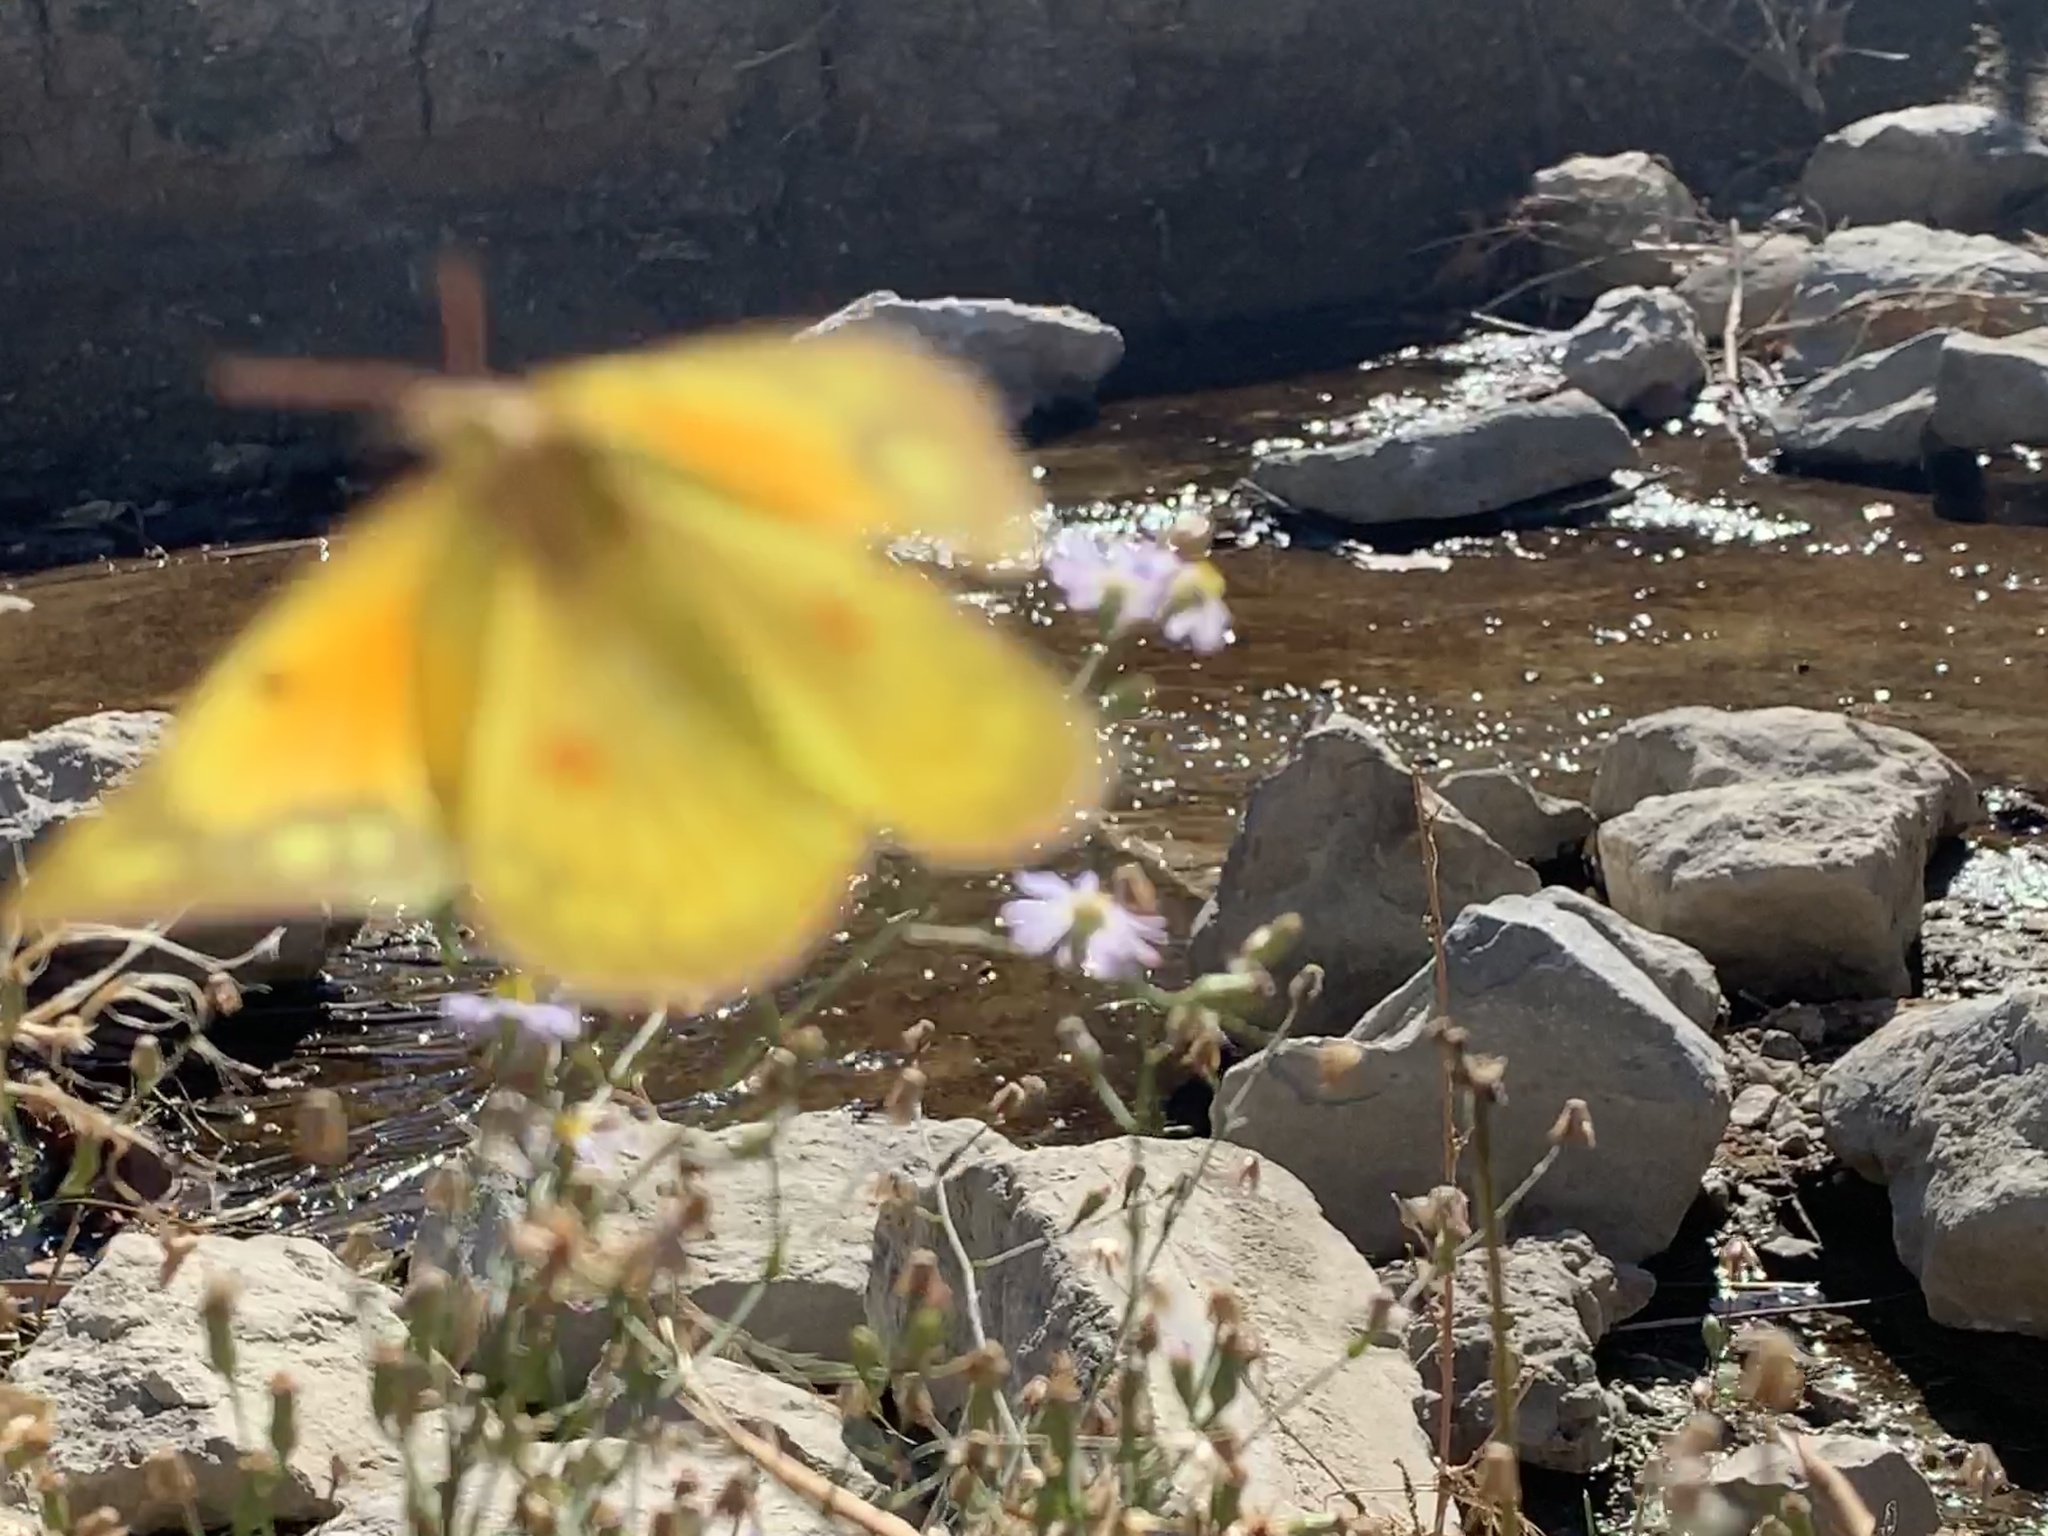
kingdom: Animalia
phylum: Arthropoda
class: Insecta
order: Lepidoptera
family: Pieridae
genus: Colias
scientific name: Colias eurytheme
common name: Alfalfa butterfly
